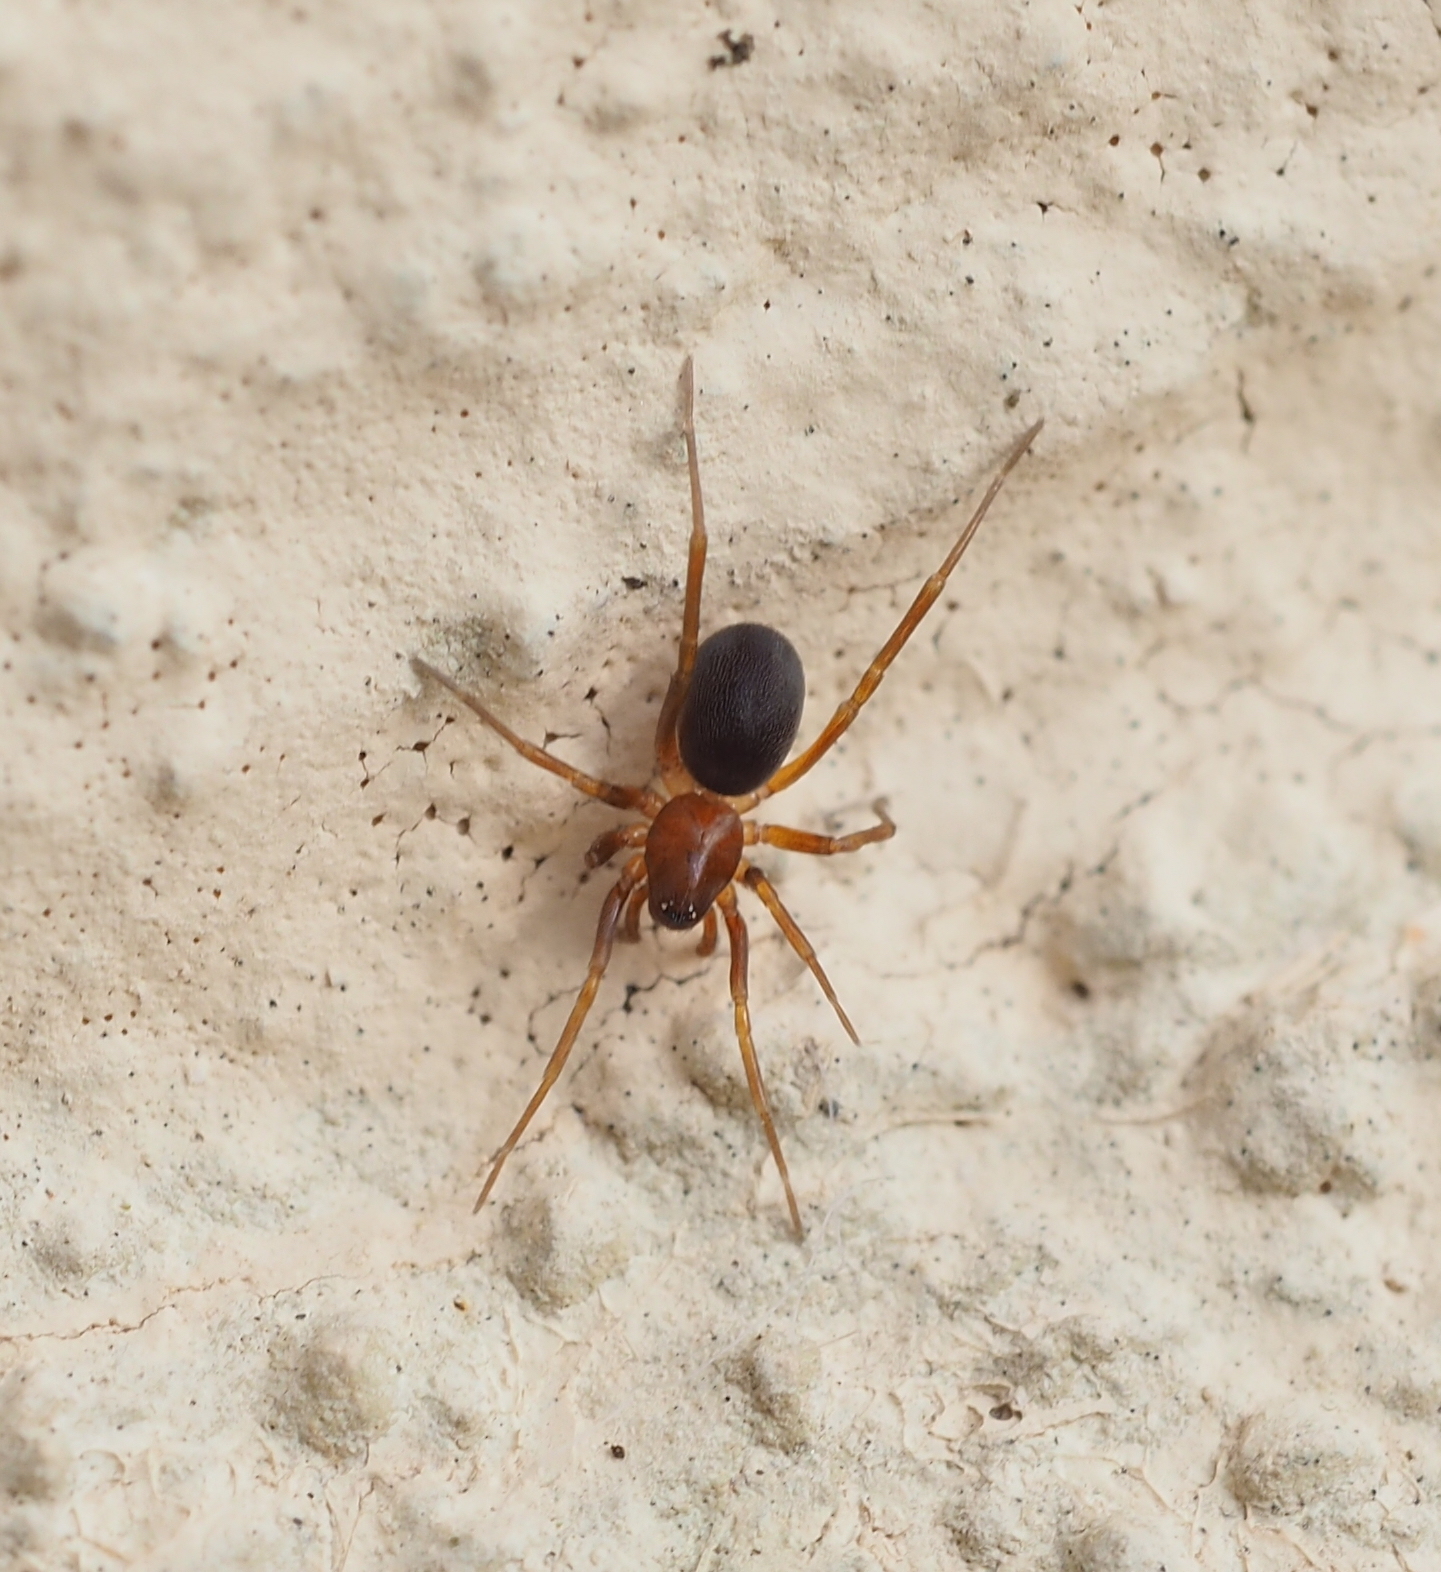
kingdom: Animalia
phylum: Arthropoda
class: Arachnida
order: Araneae
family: Zodariidae
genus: Zodarion
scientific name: Zodarion italicum
